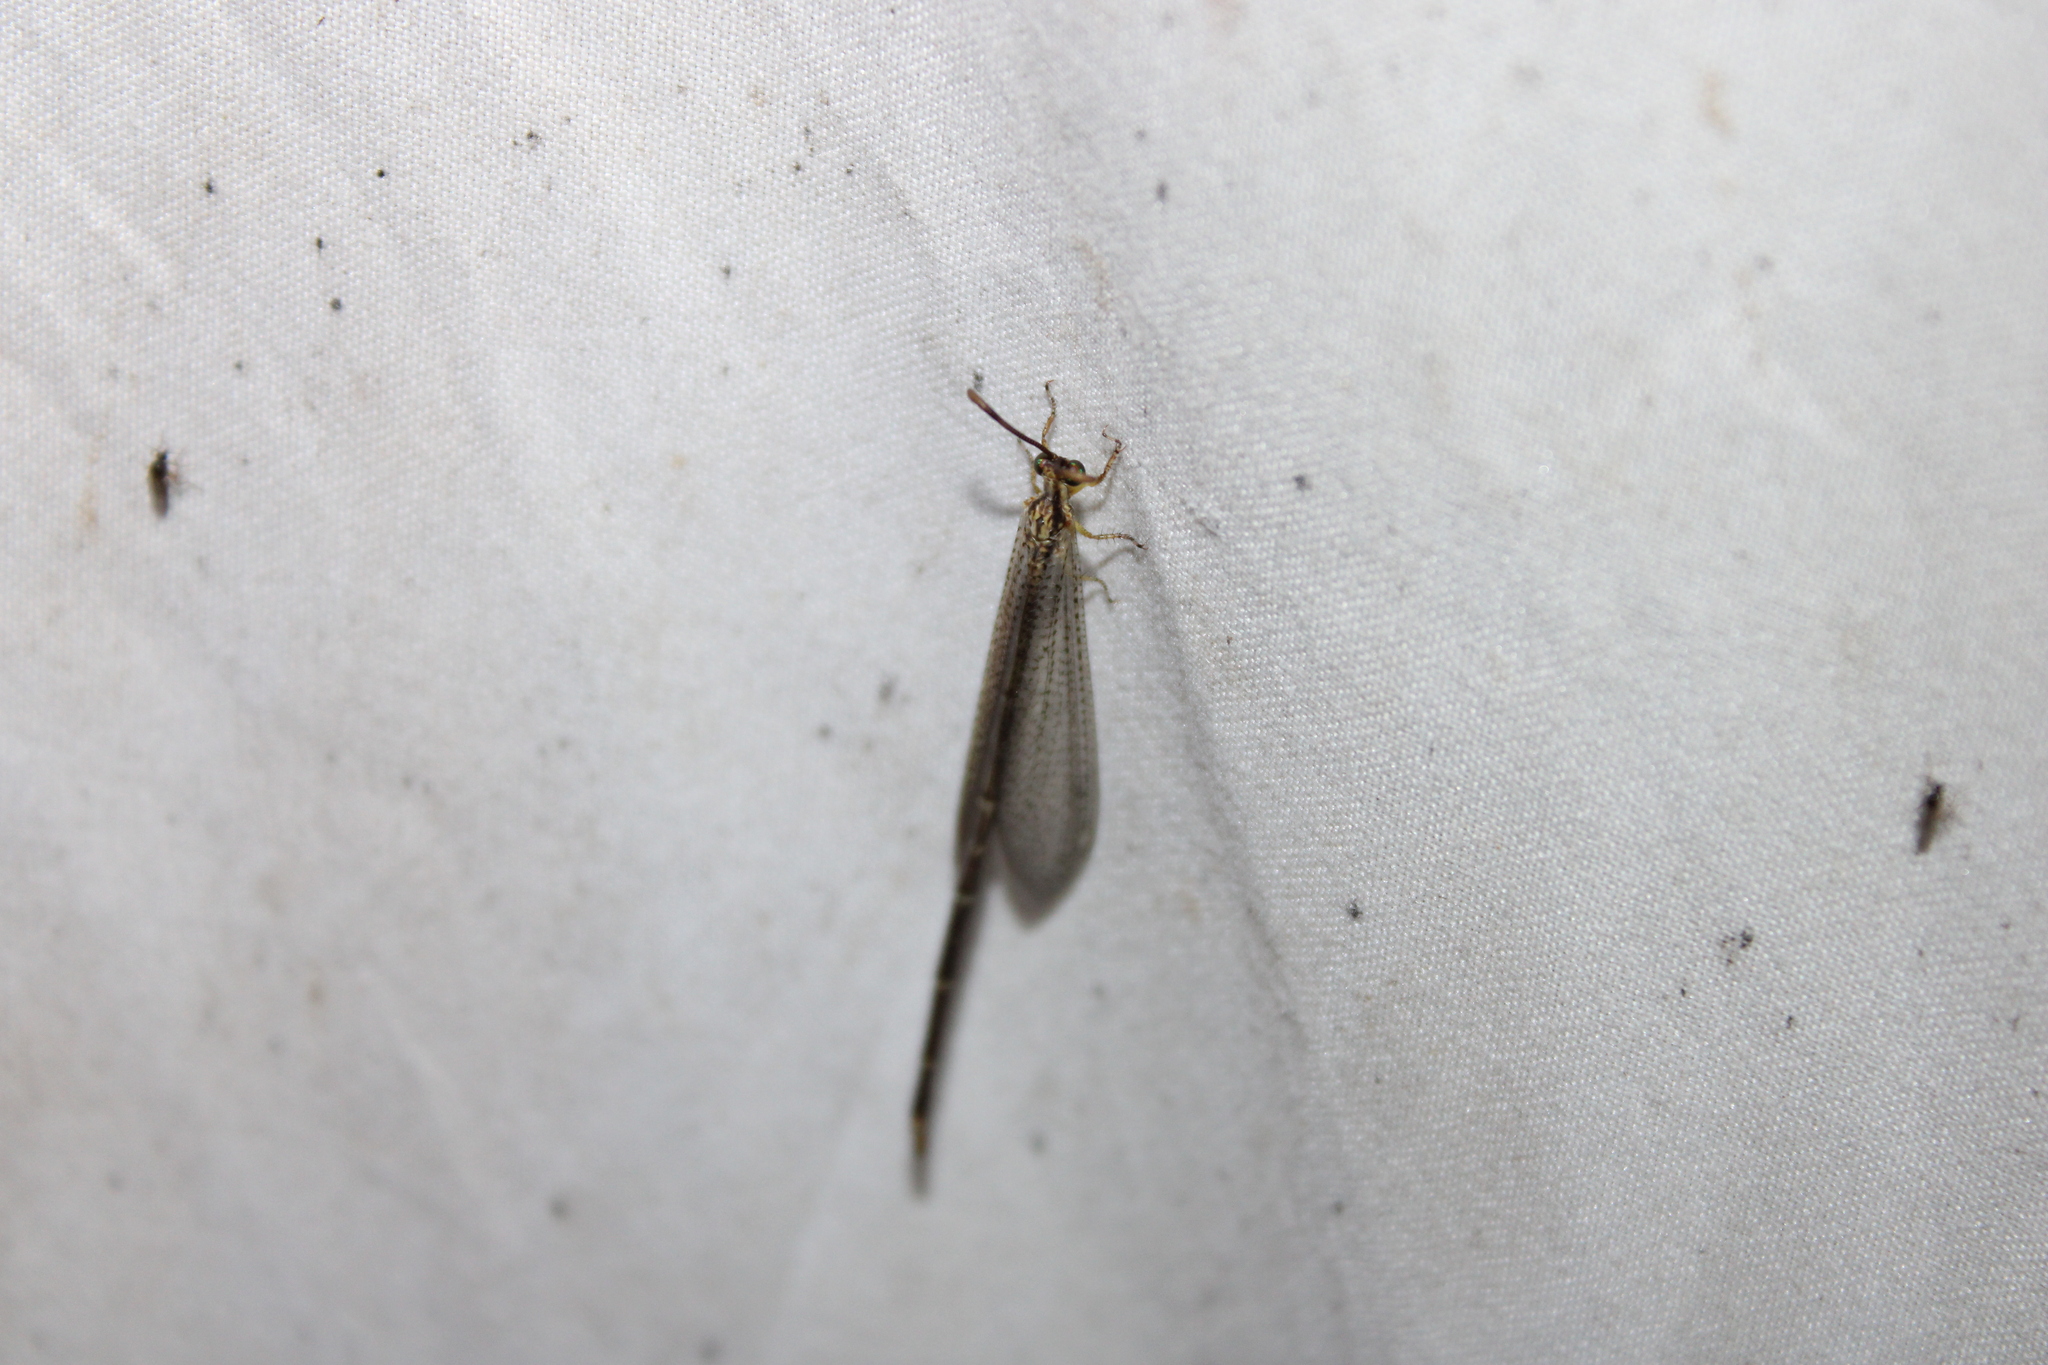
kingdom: Animalia
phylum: Arthropoda
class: Insecta
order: Neuroptera
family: Myrmeleontidae
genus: Brachynemurus
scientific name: Brachynemurus abdominalis
